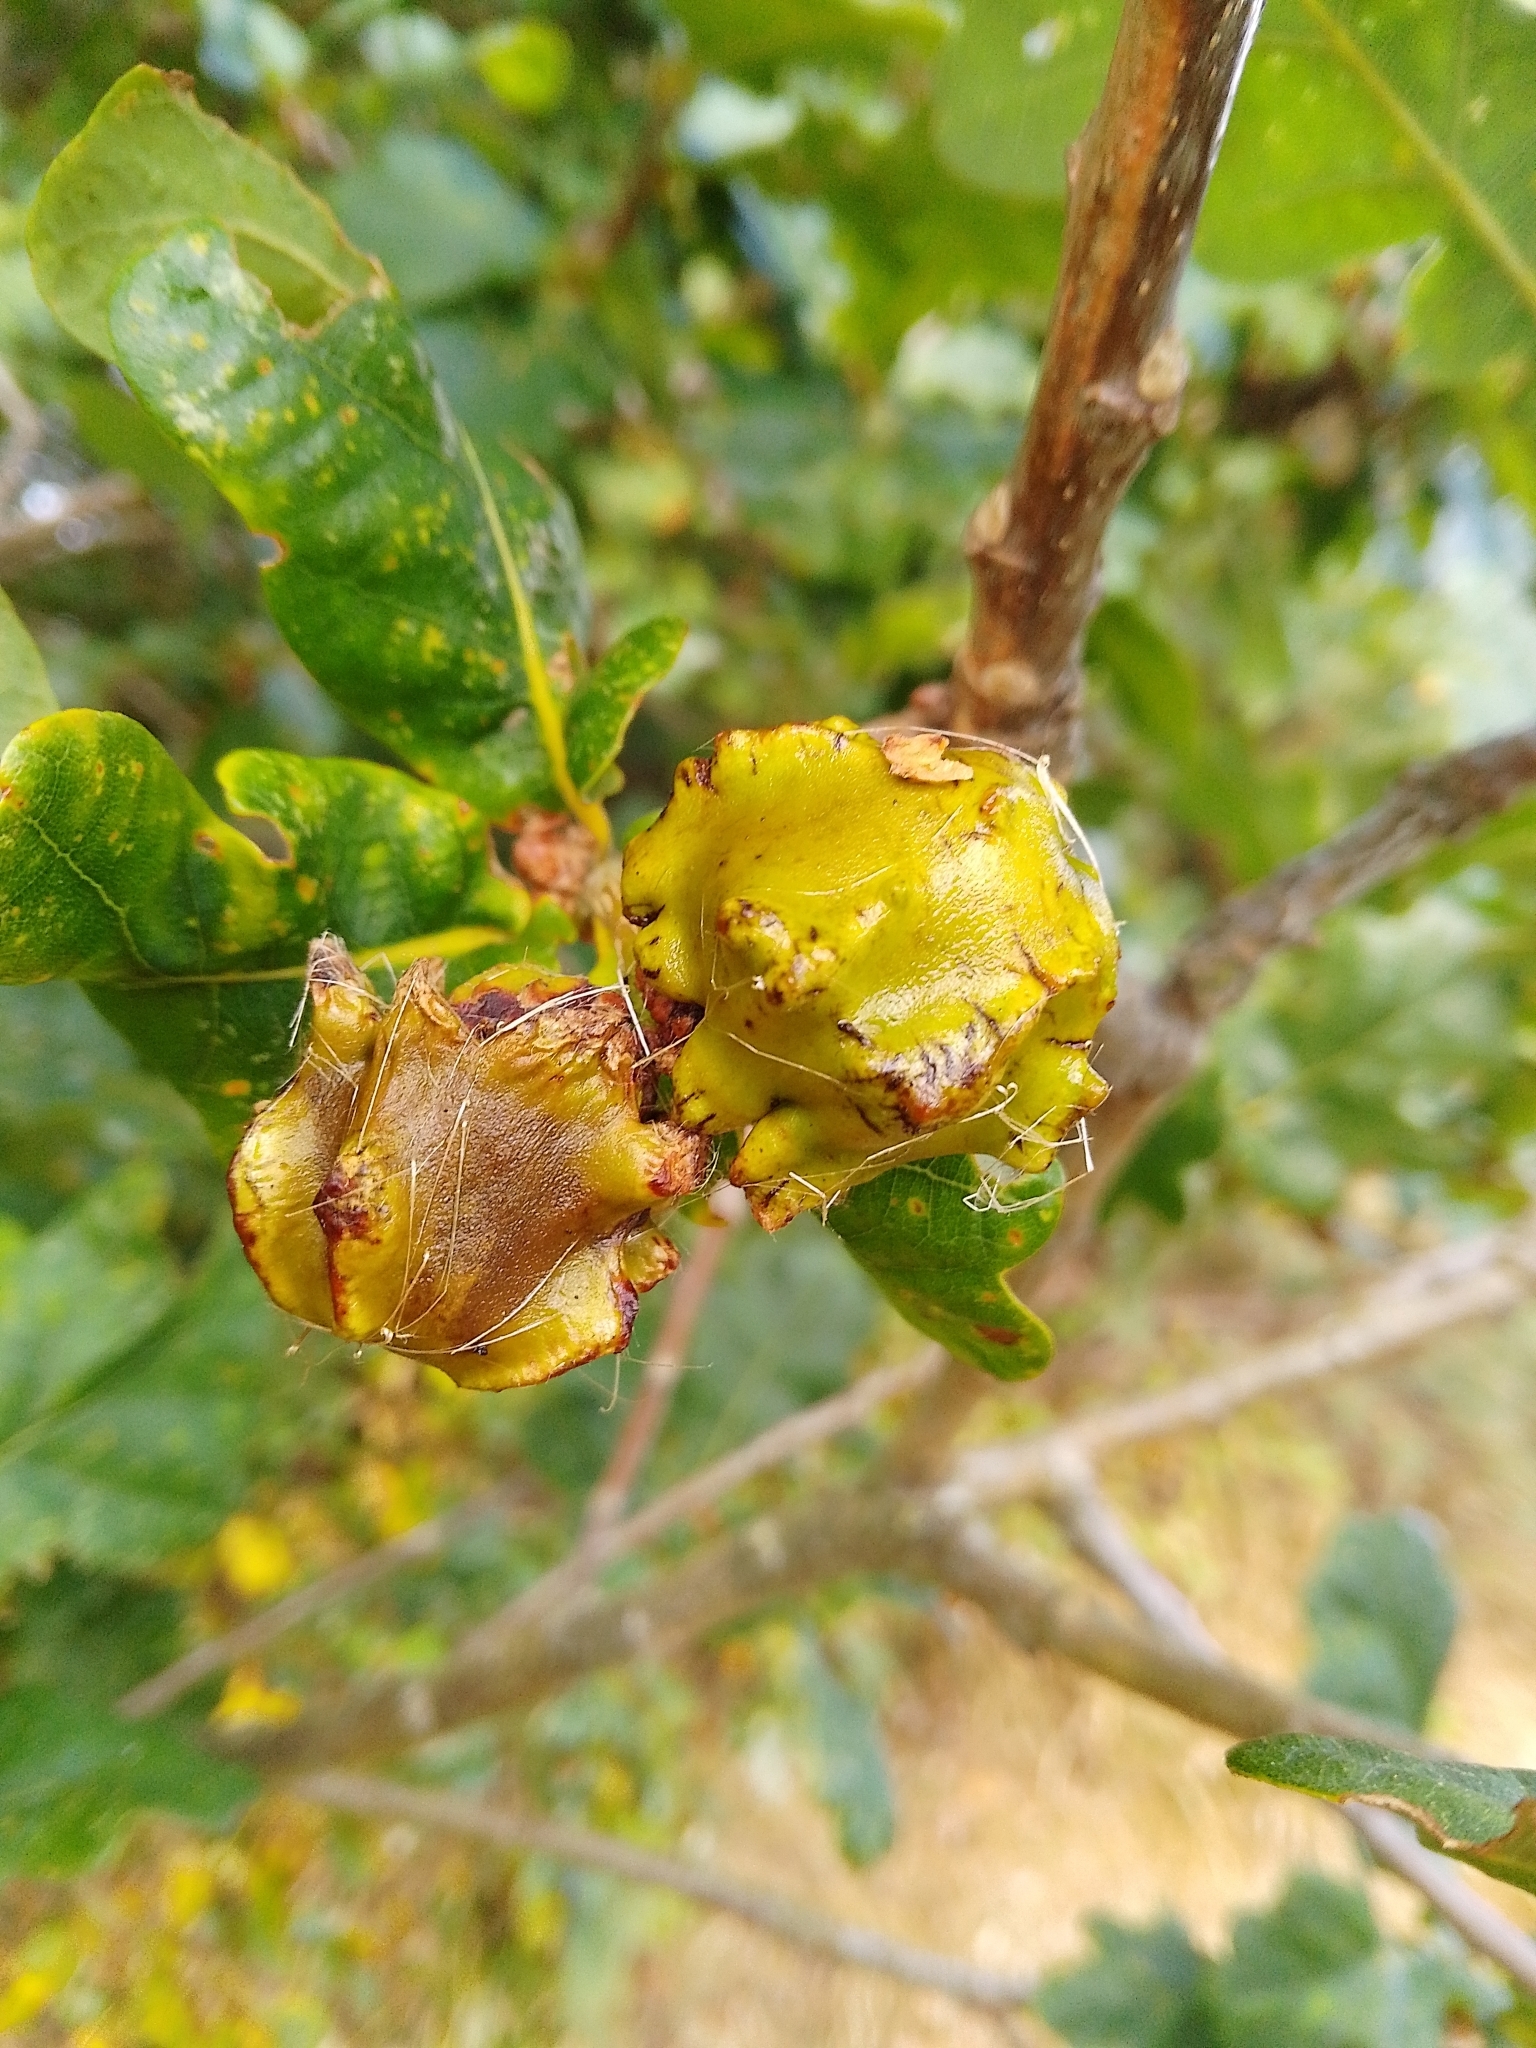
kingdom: Animalia
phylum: Arthropoda
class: Insecta
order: Hymenoptera
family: Cynipidae
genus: Andricus
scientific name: Andricus quercuscalicis
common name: Knopper gall
